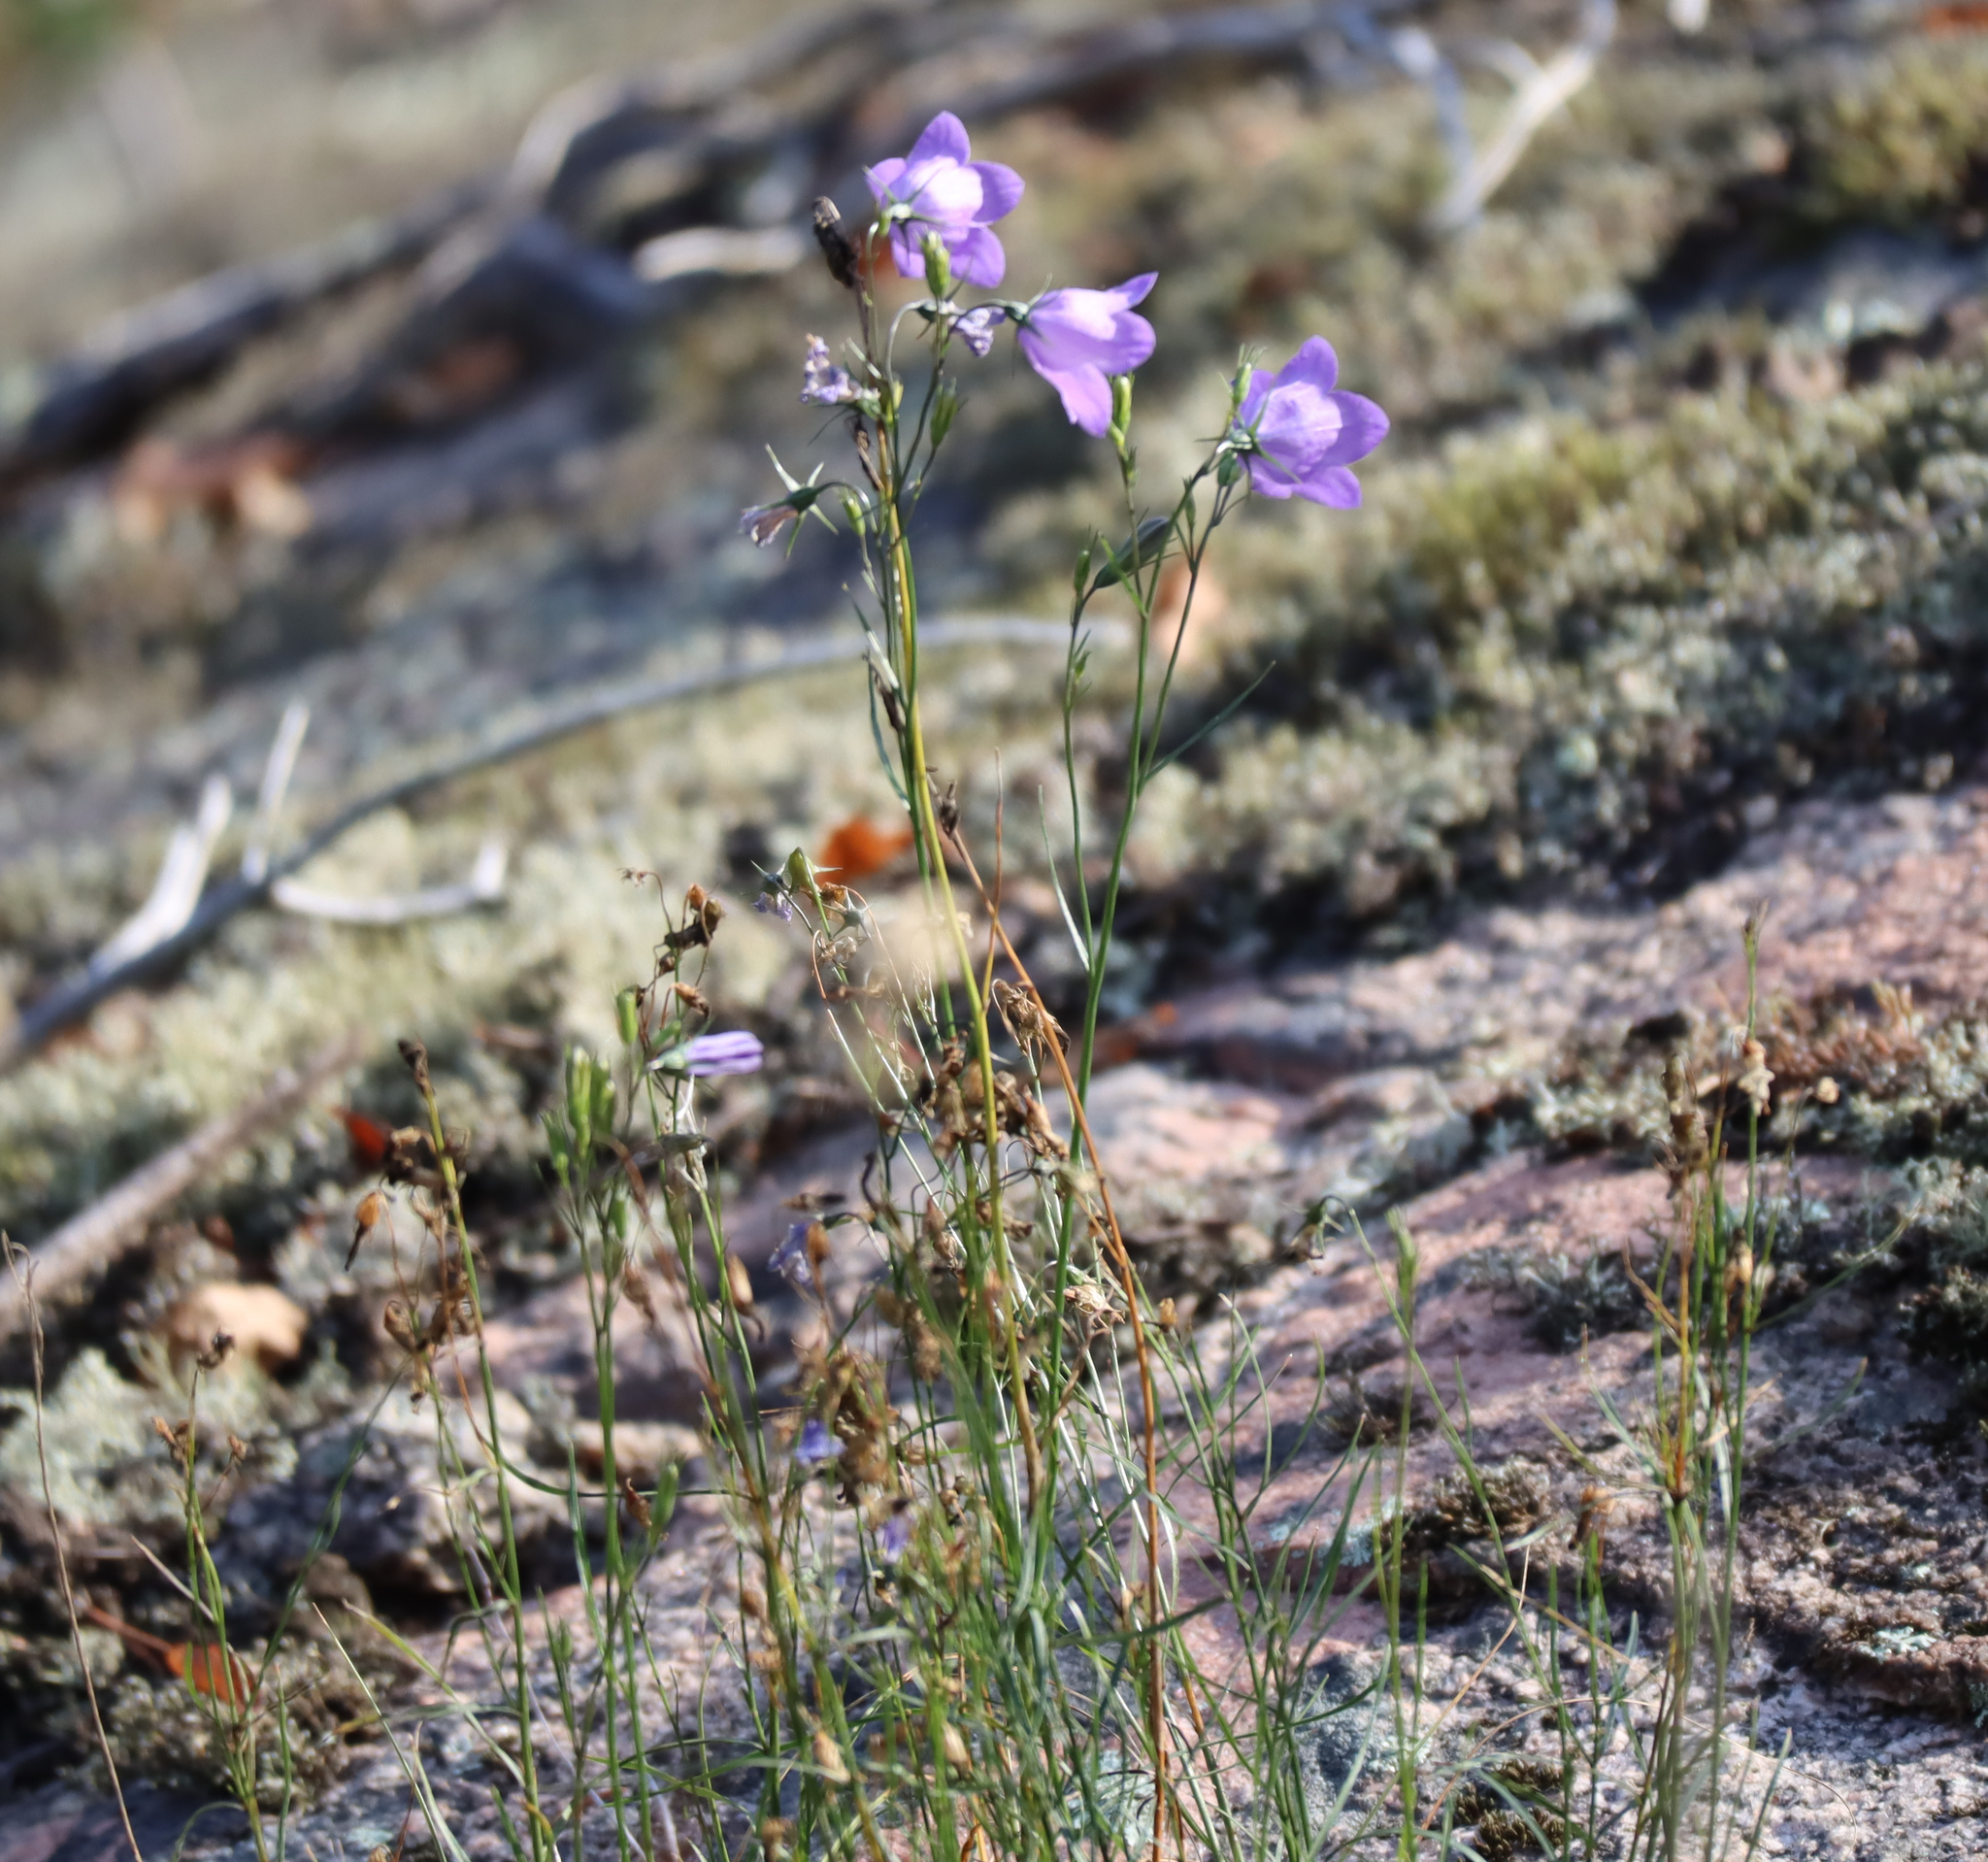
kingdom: Plantae
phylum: Tracheophyta
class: Magnoliopsida
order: Asterales
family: Campanulaceae
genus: Campanula
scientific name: Campanula petiolata
